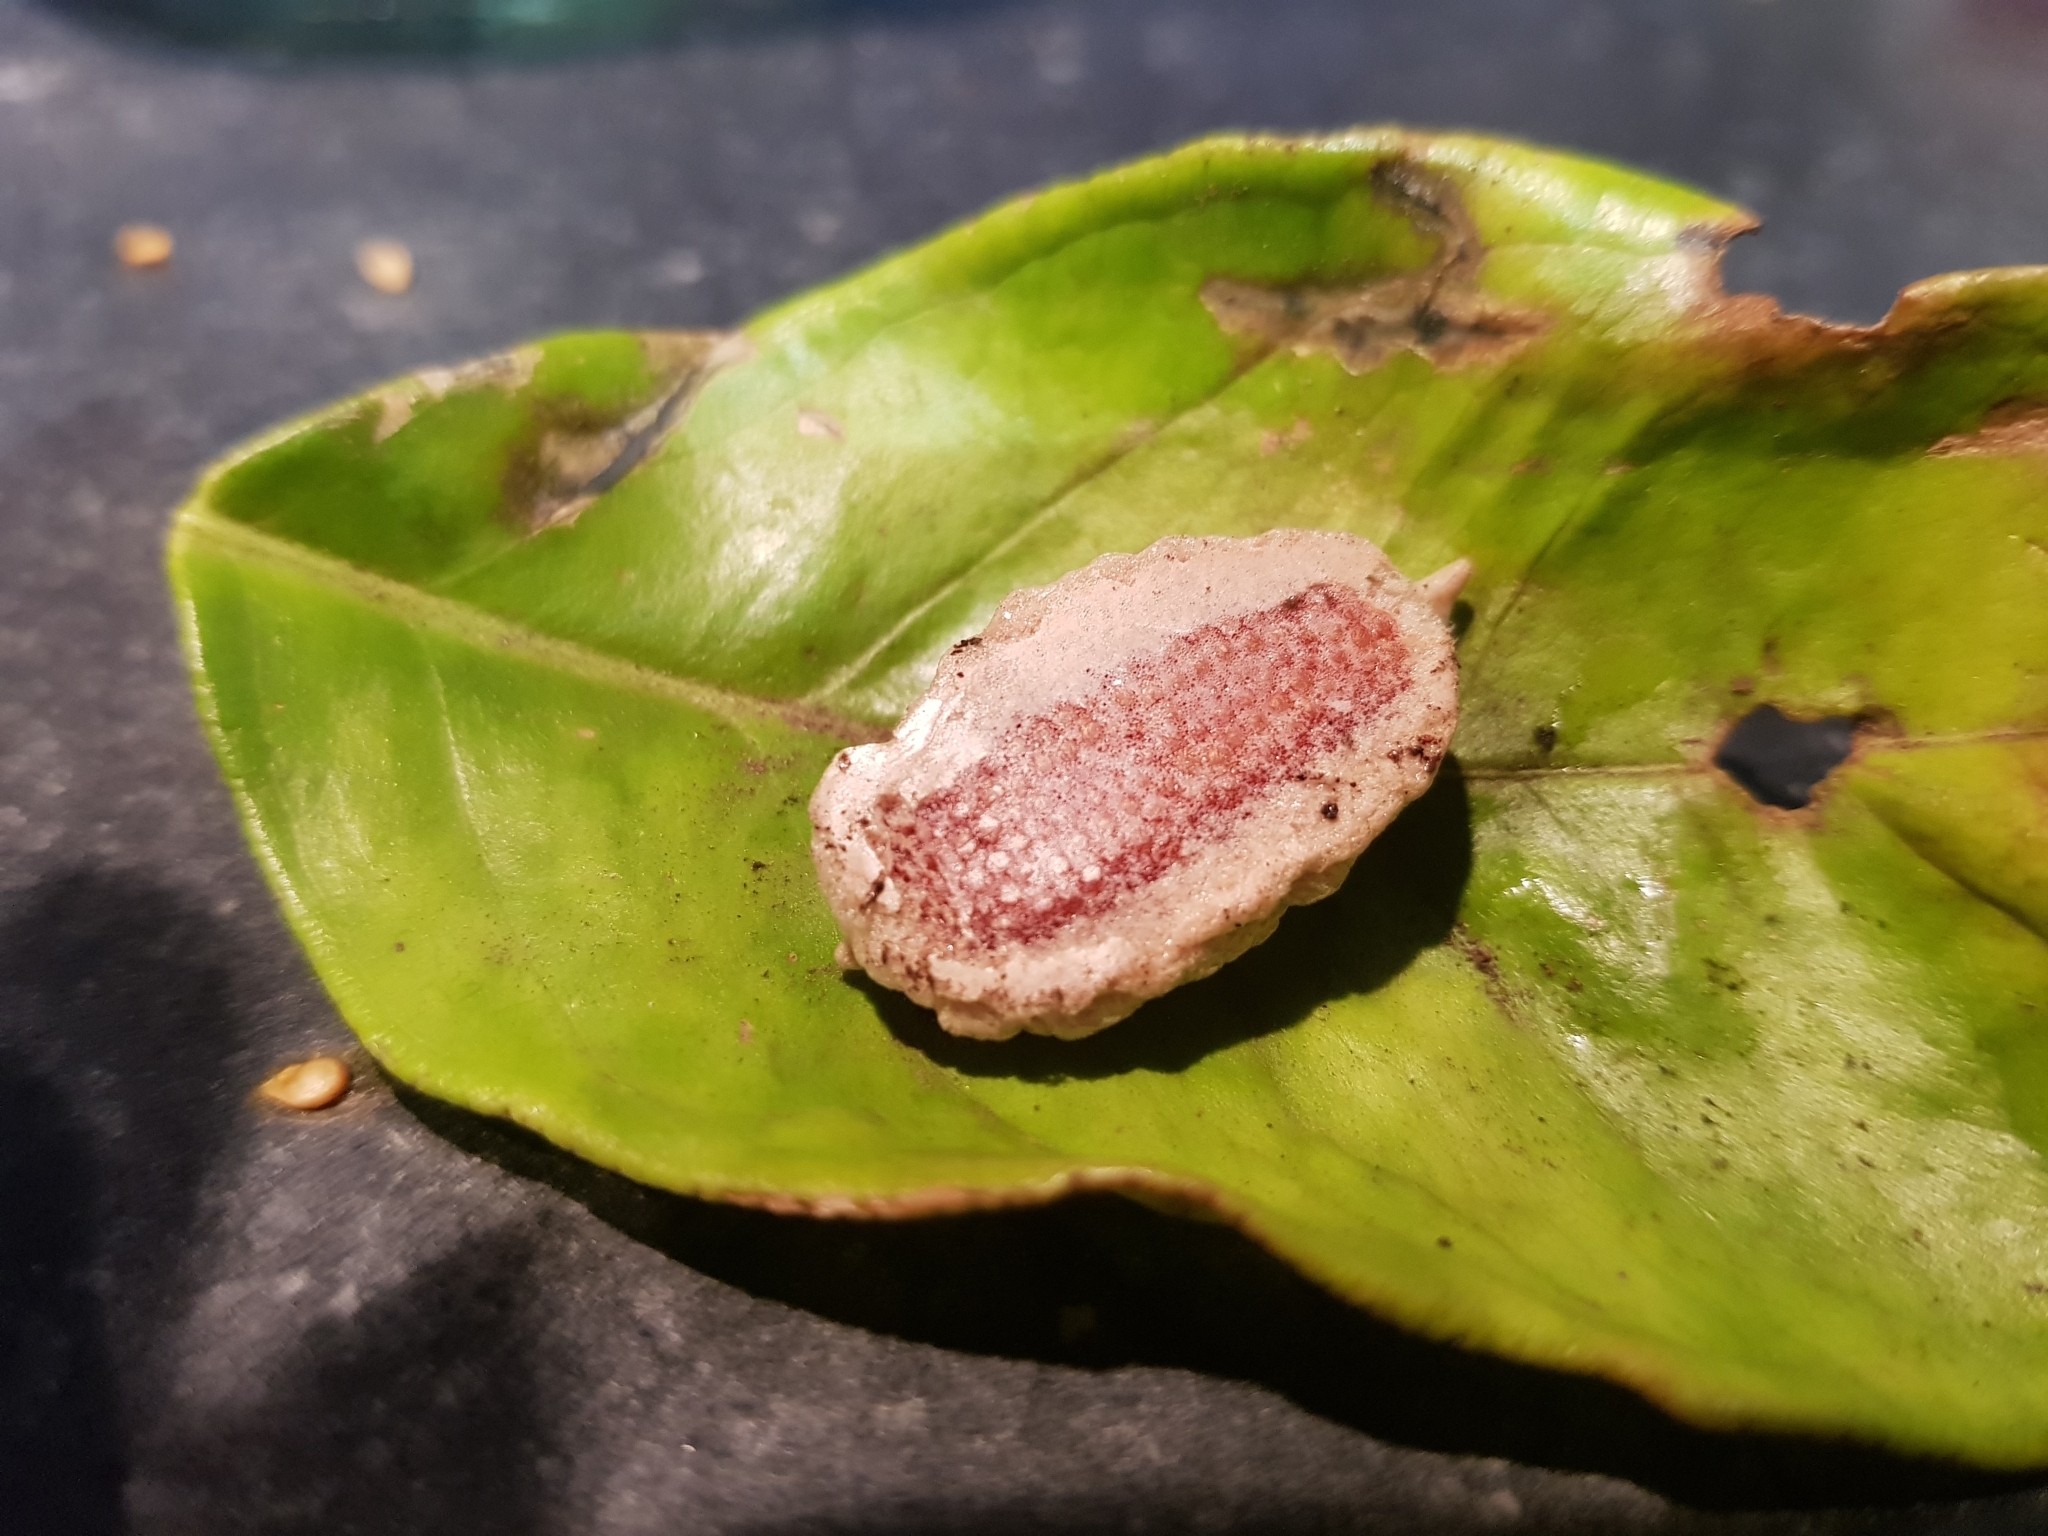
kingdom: Animalia
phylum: Arthropoda
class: Insecta
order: Mantodea
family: Miomantidae
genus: Miomantis
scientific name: Miomantis caffra
